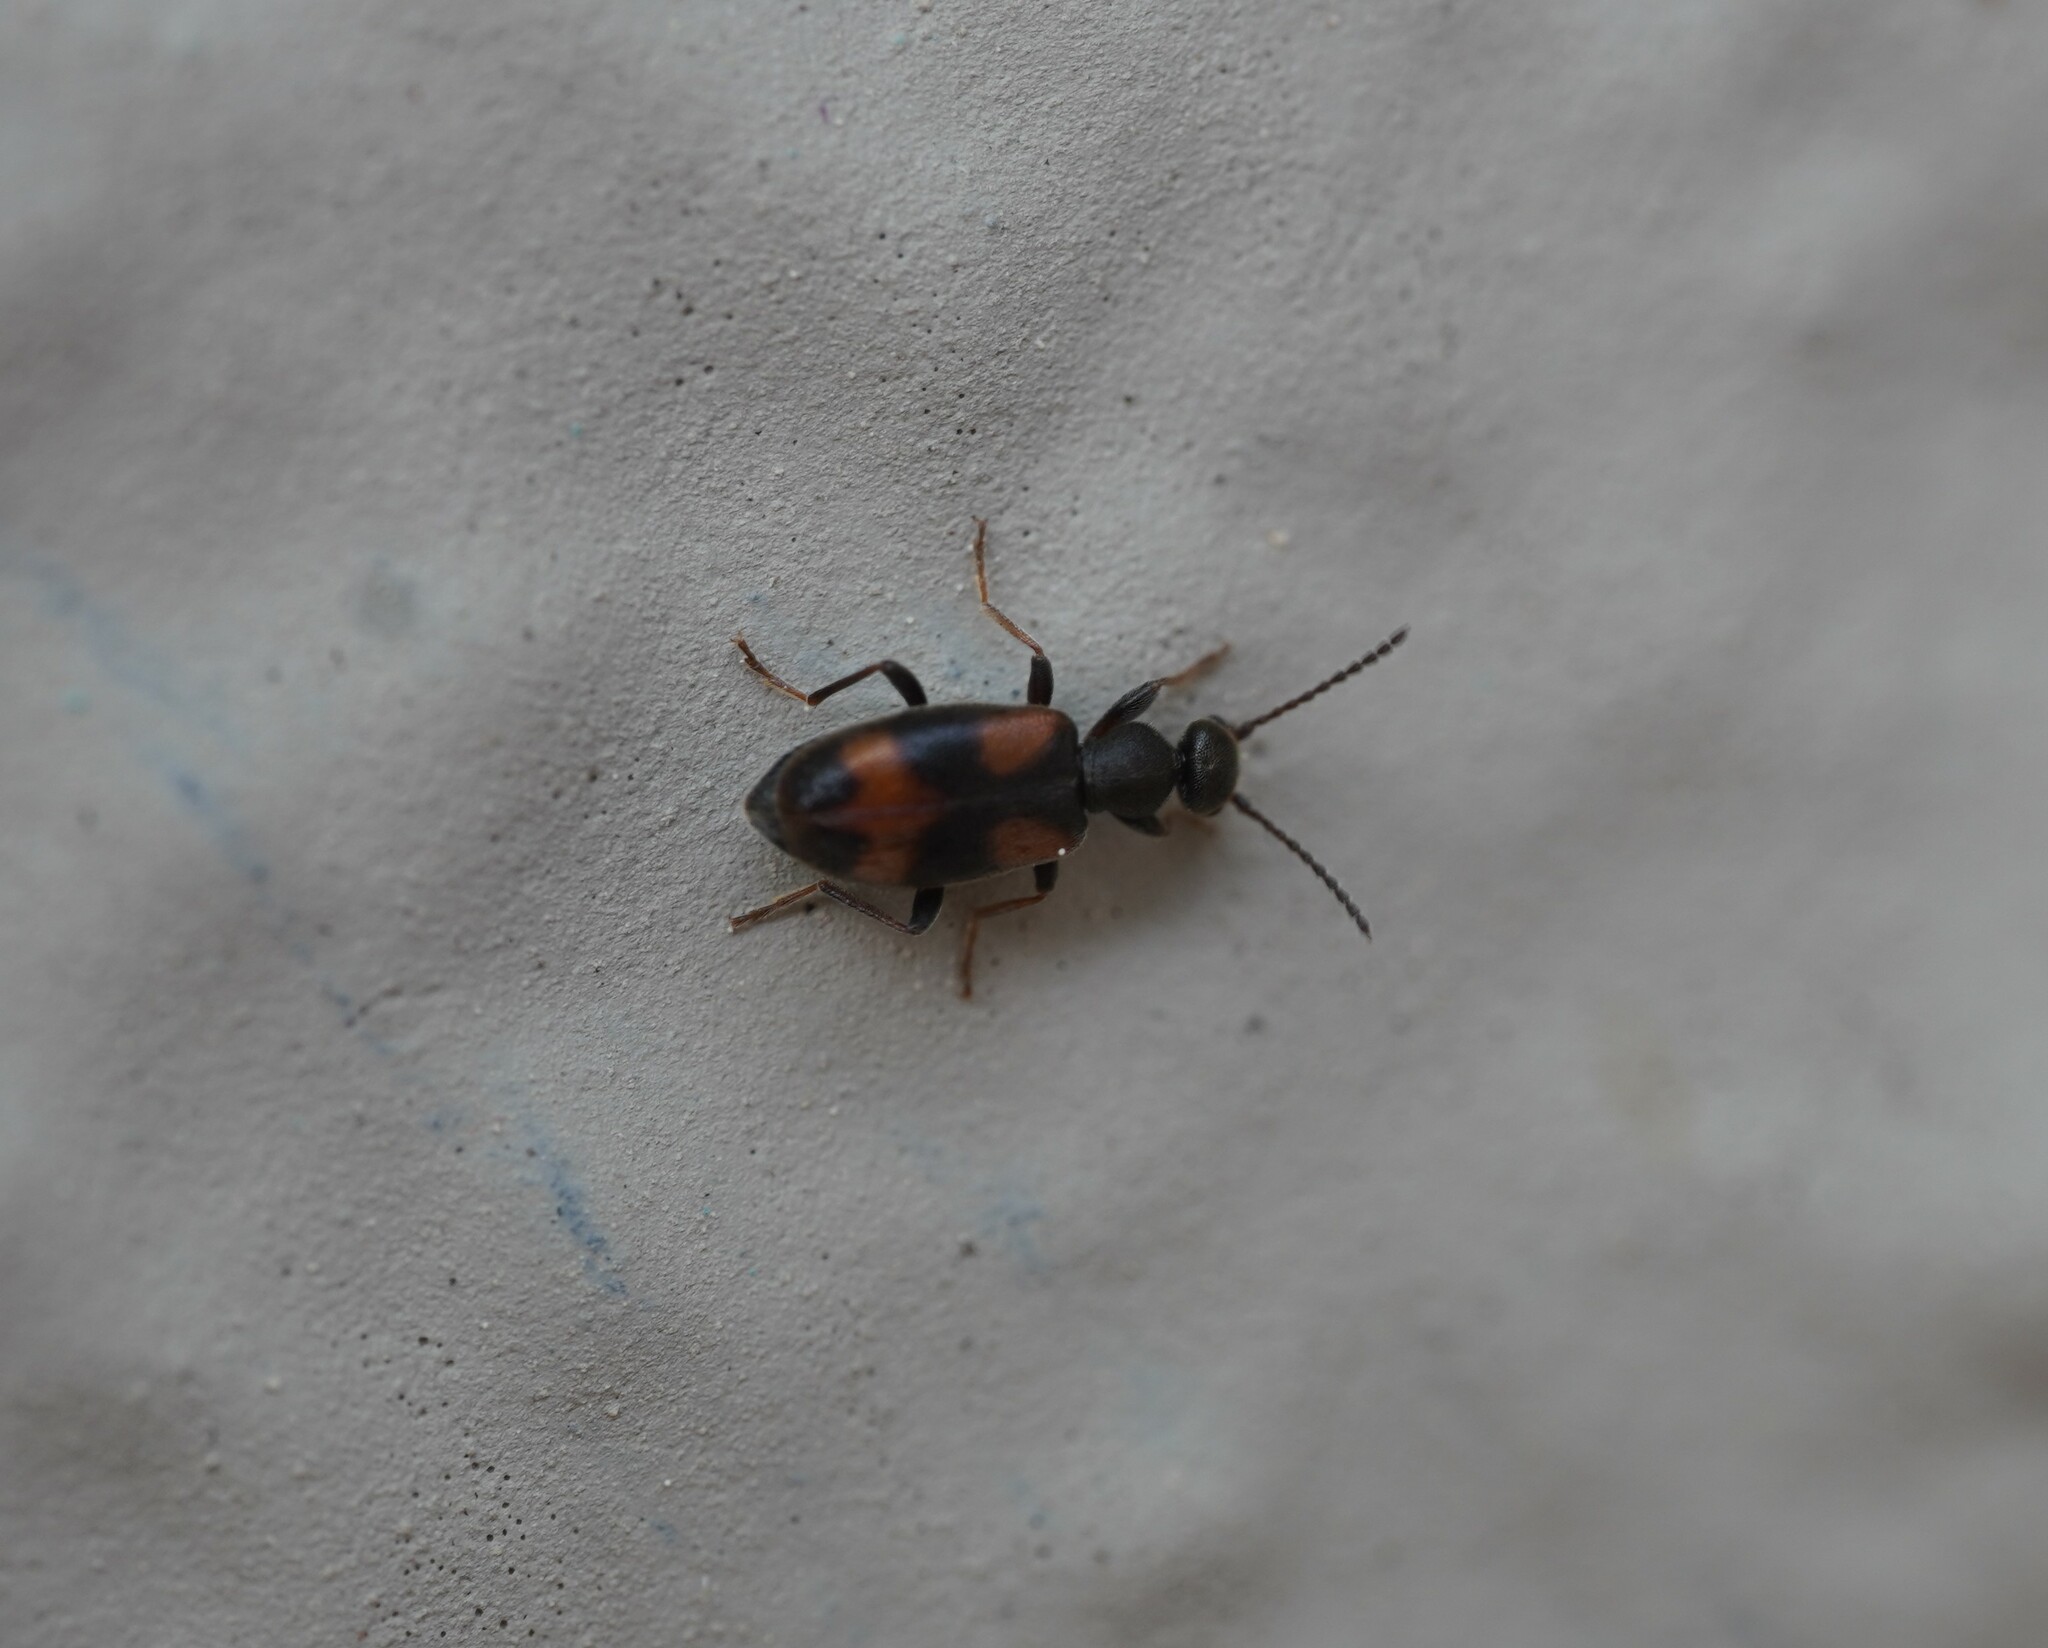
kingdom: Animalia
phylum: Arthropoda
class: Insecta
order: Coleoptera
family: Anthicidae
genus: Anthicus
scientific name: Anthicus antherinus
